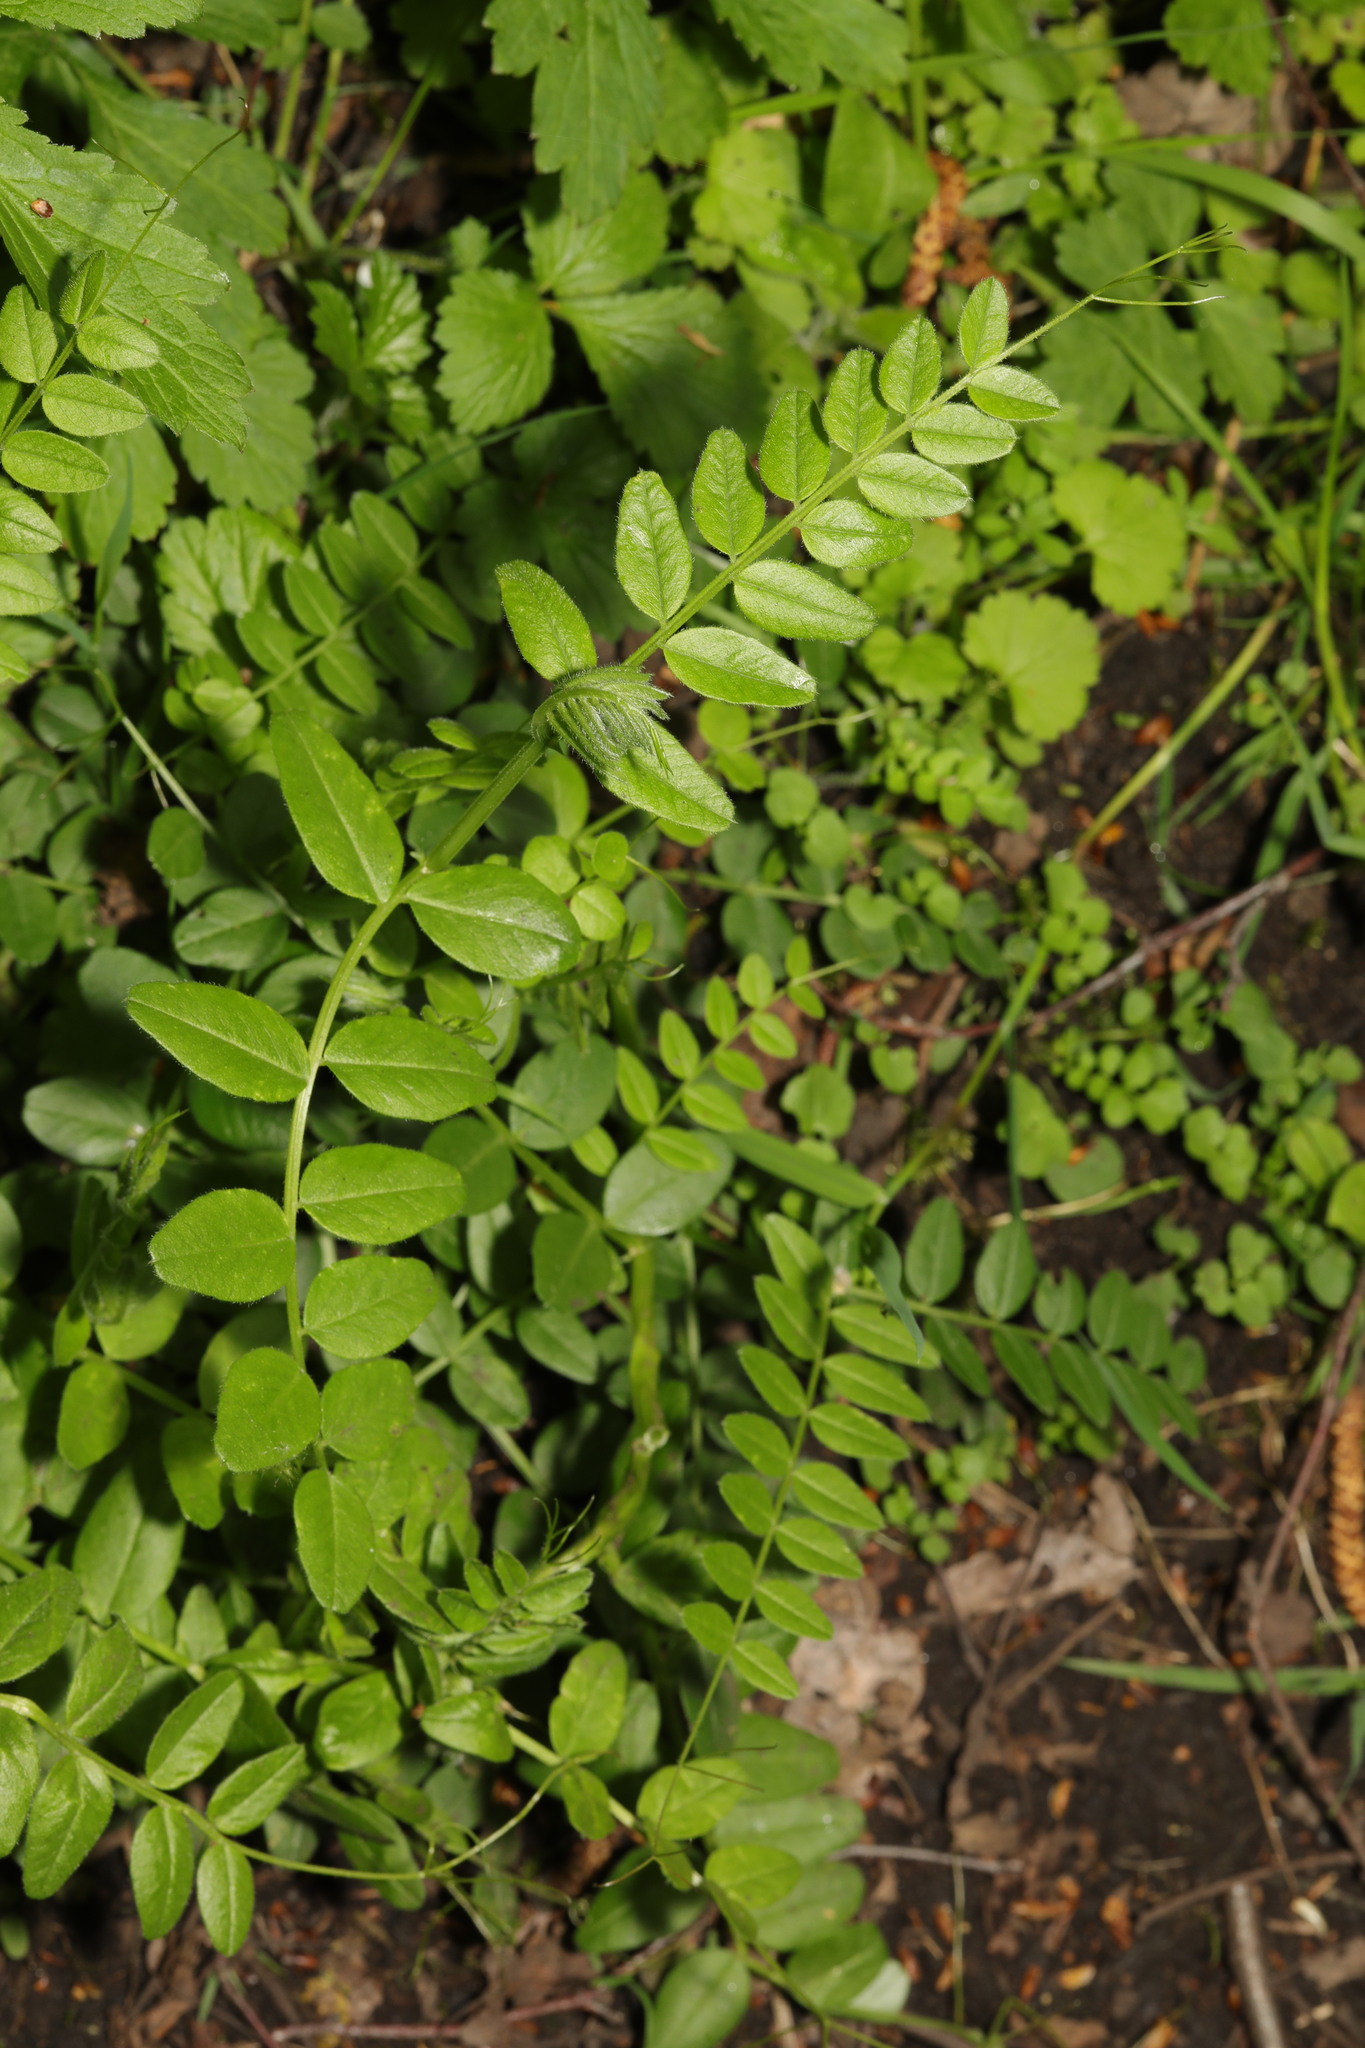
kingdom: Plantae
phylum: Tracheophyta
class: Magnoliopsida
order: Fabales
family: Fabaceae
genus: Vicia
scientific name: Vicia sepium
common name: Bush vetch
